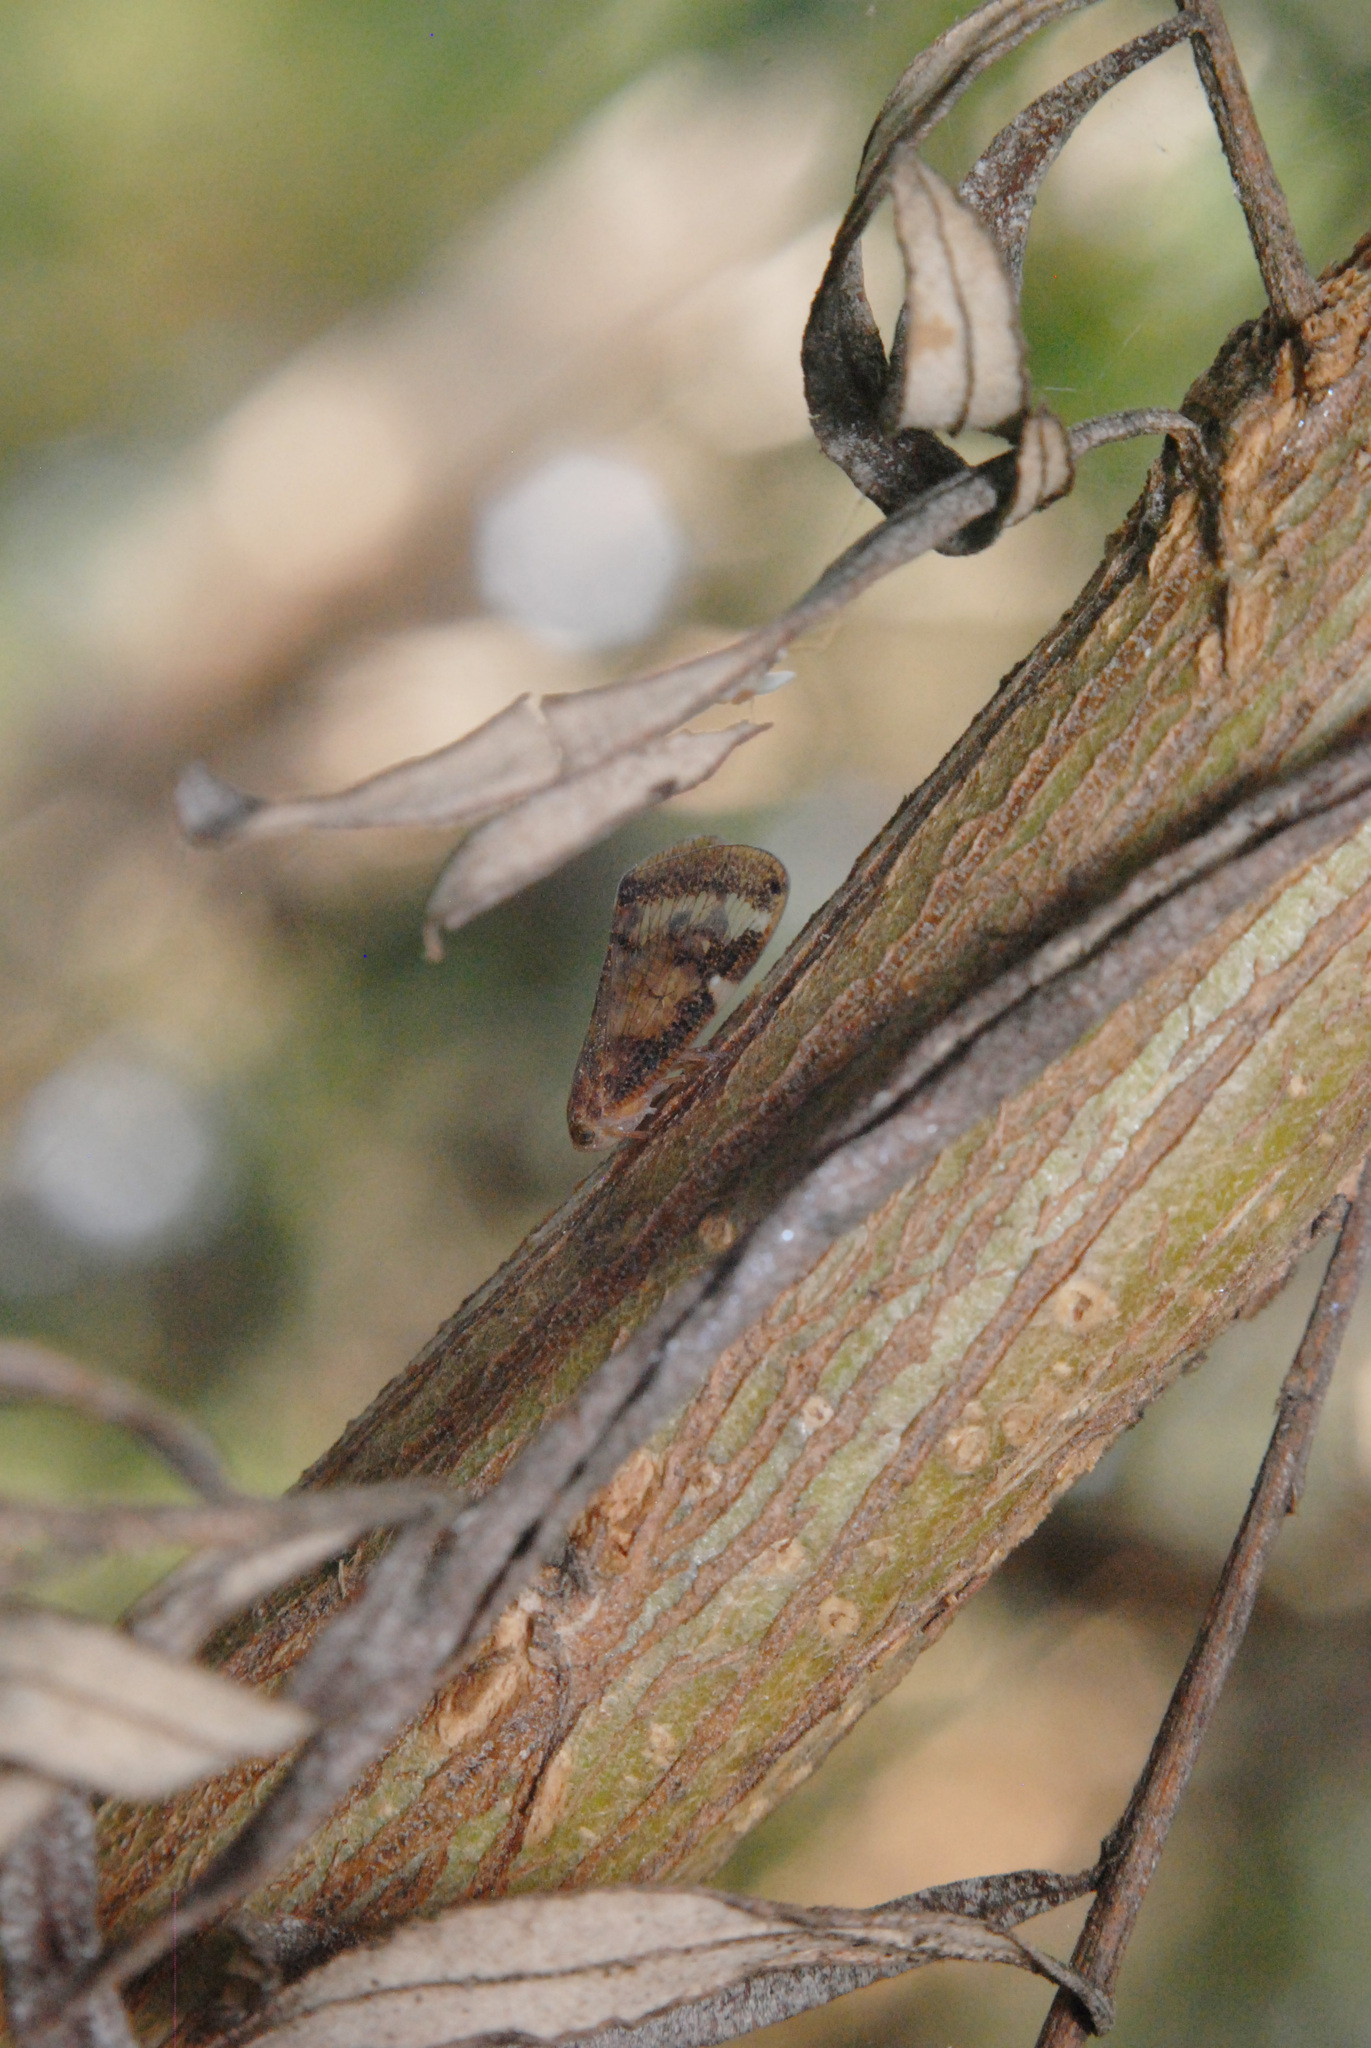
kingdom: Animalia
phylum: Arthropoda
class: Insecta
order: Hemiptera
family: Ricaniidae
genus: Scolypopa
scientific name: Scolypopa australis
